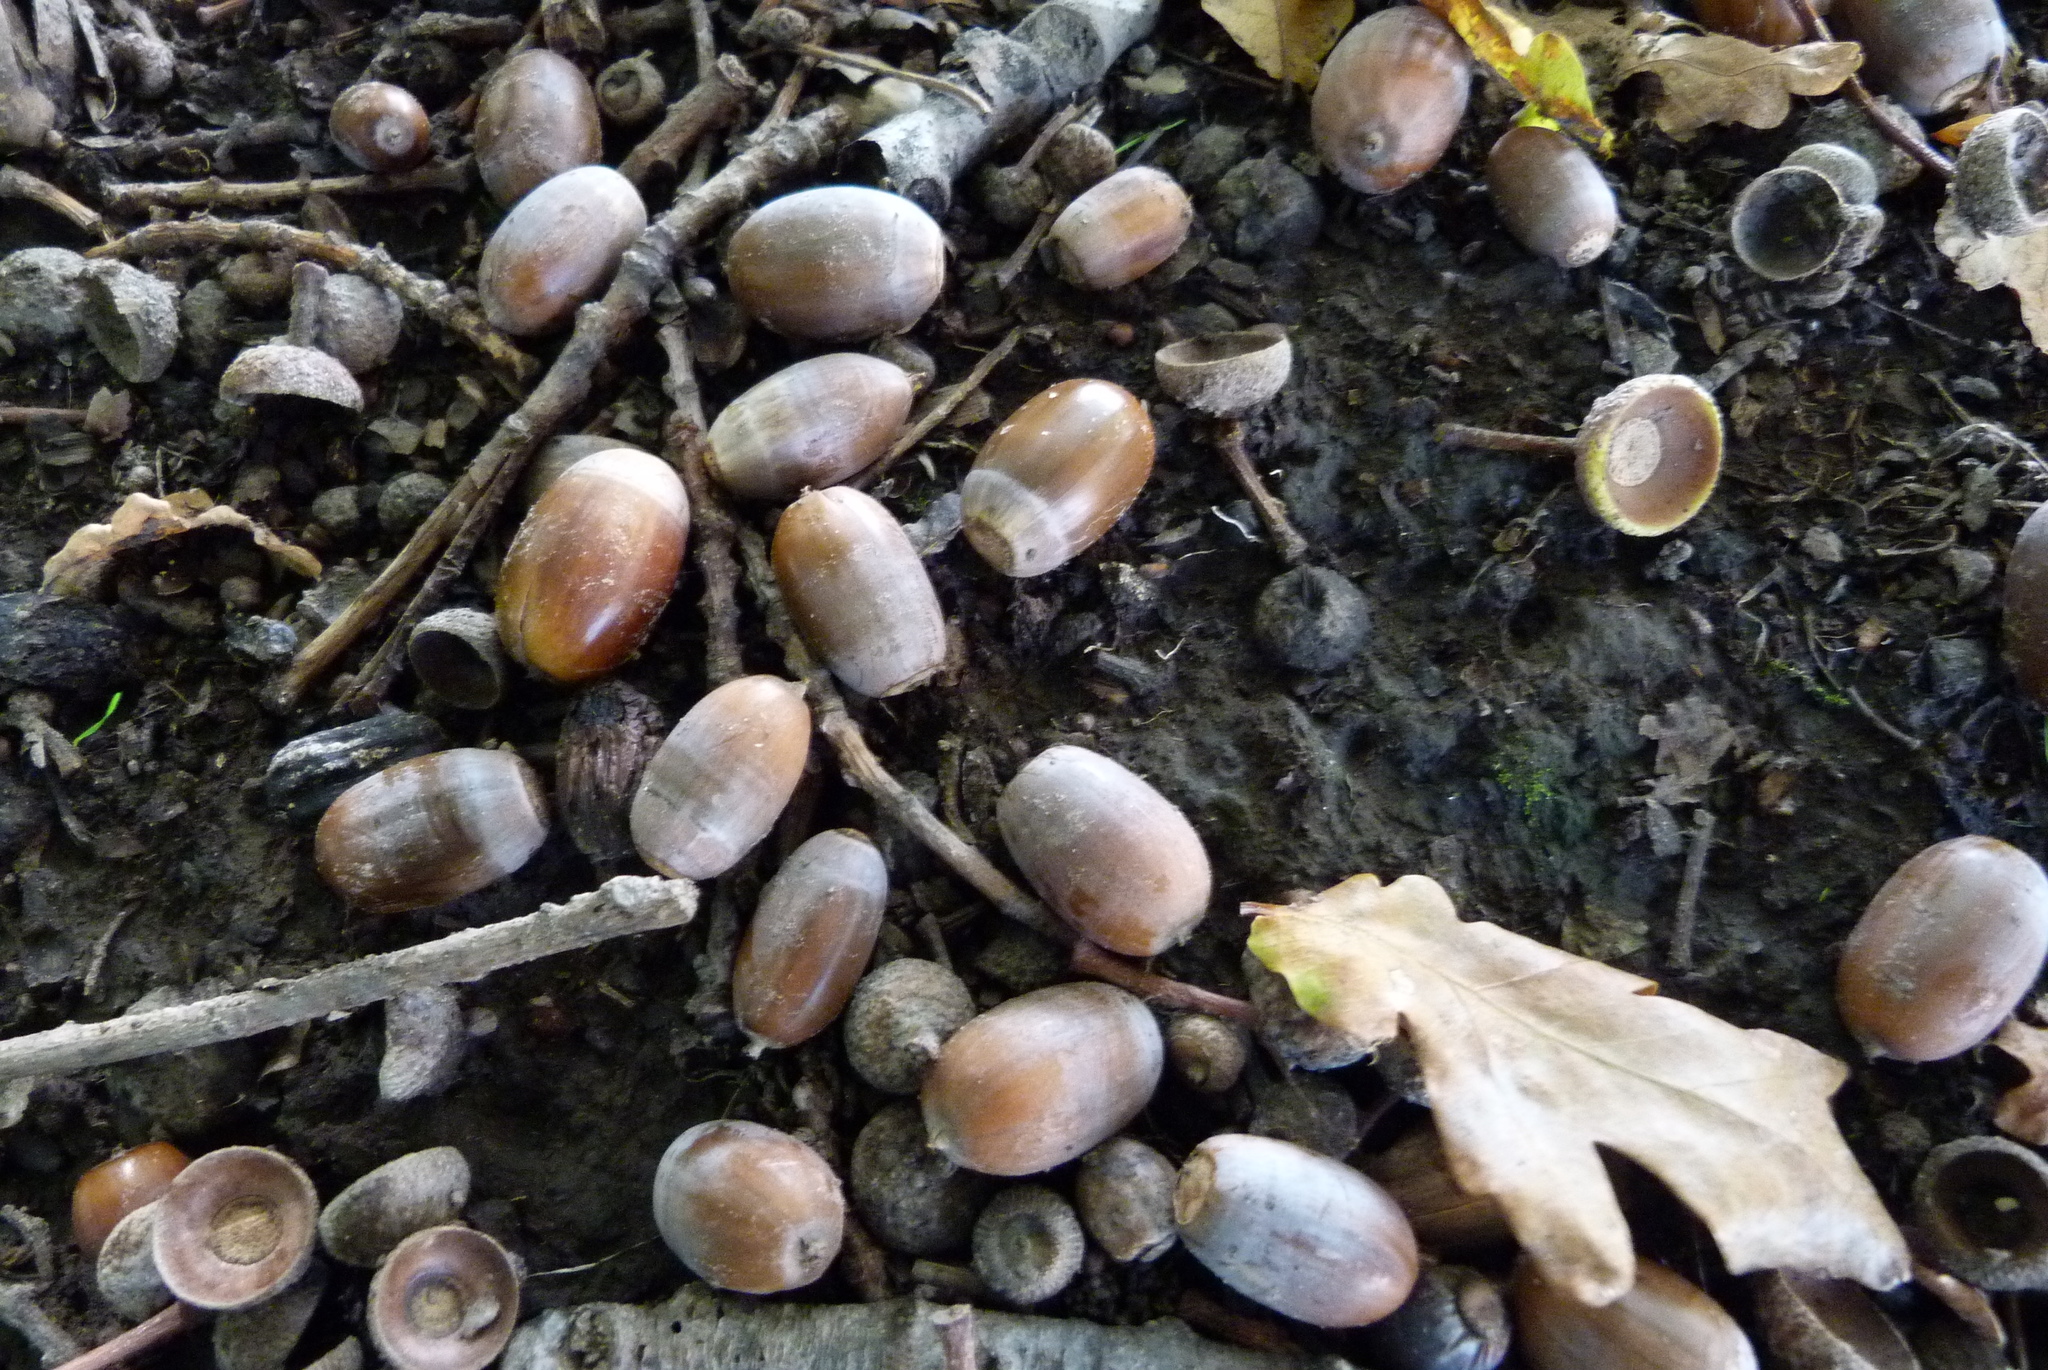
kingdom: Plantae
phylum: Tracheophyta
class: Magnoliopsida
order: Fagales
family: Fagaceae
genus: Quercus
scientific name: Quercus robur
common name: Pedunculate oak
